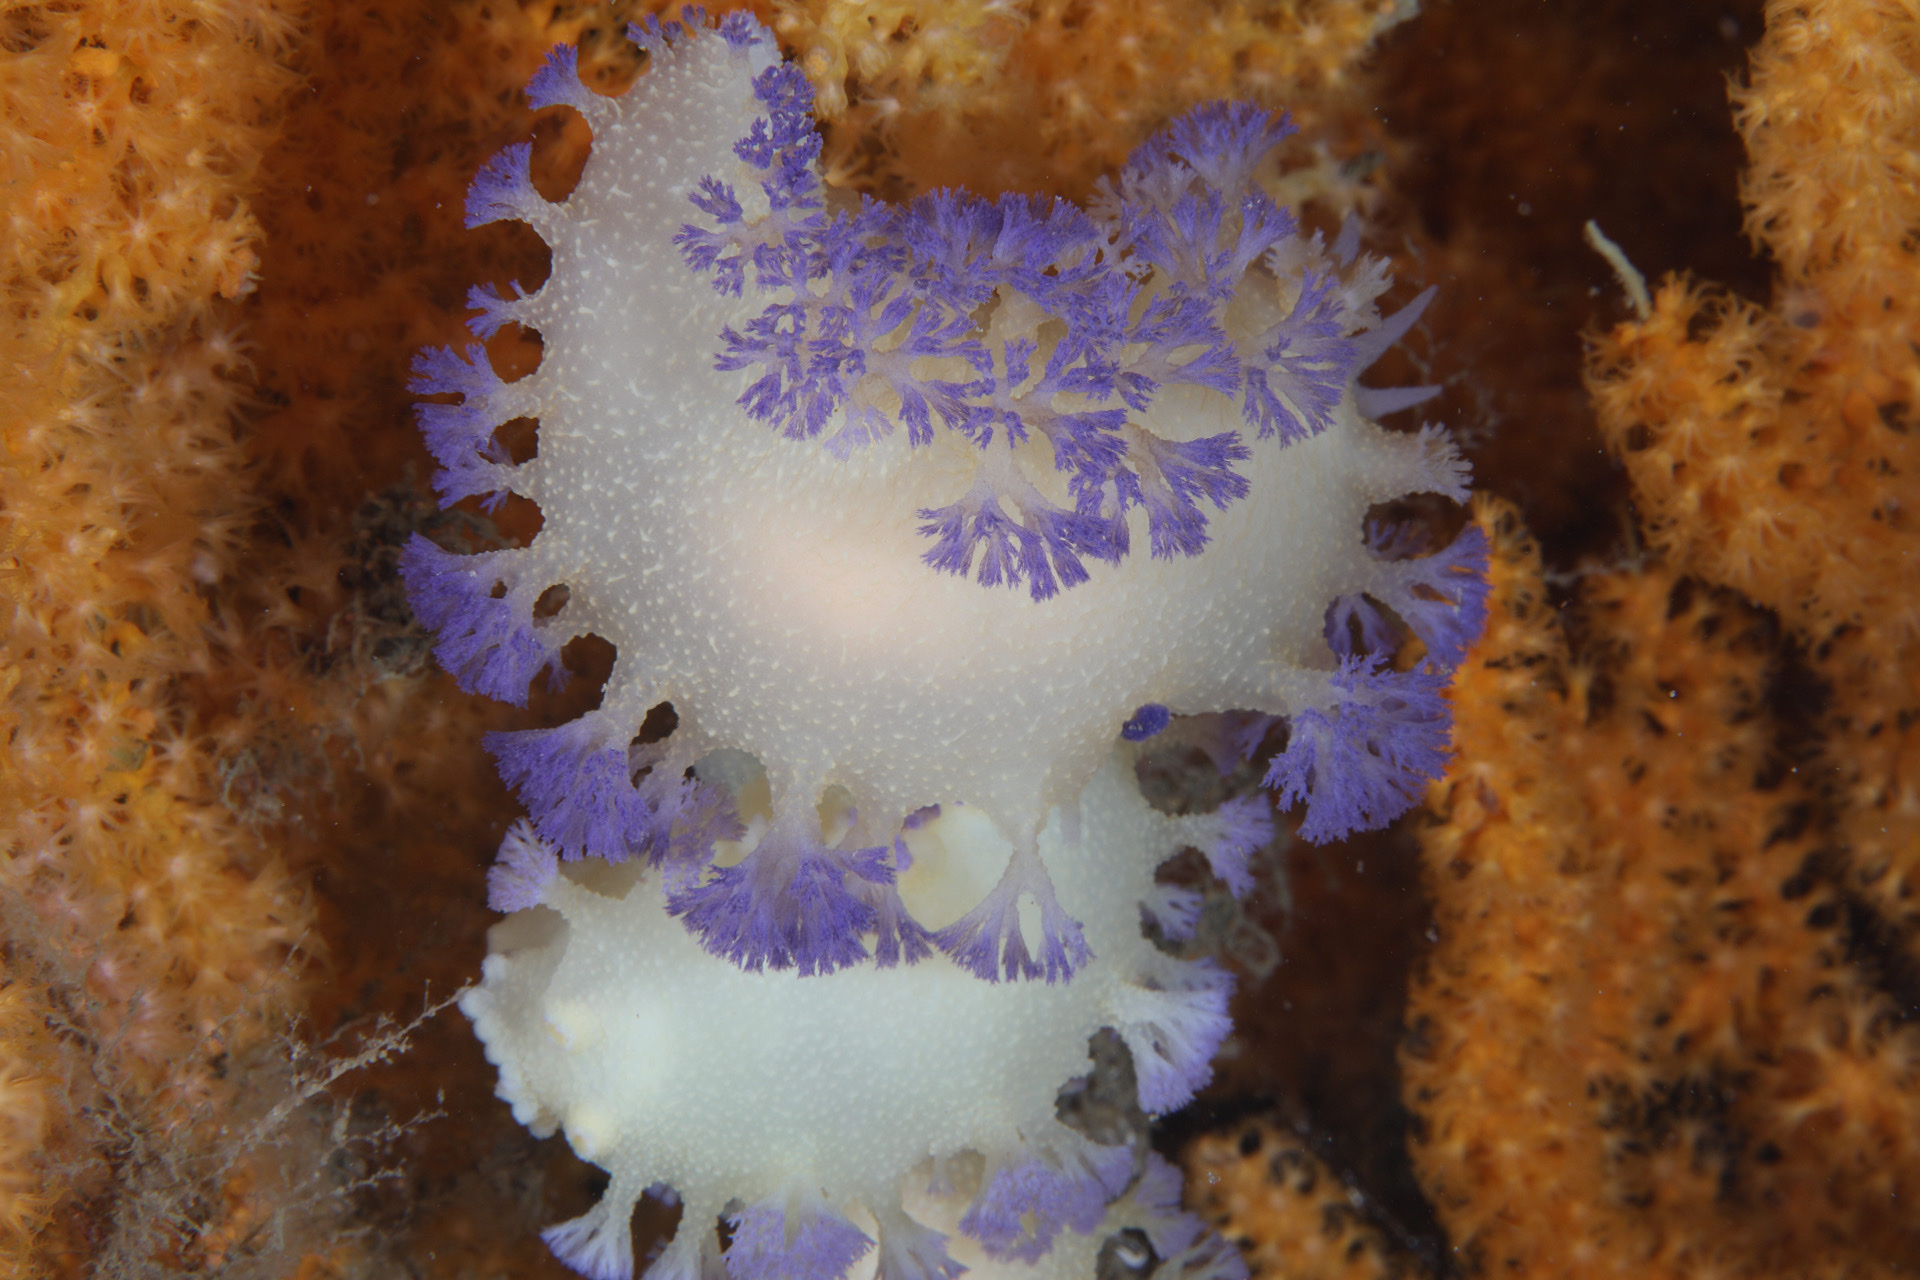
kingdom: Animalia
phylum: Mollusca
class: Gastropoda
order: Nudibranchia
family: Tritoniidae
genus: Tritonia
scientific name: Tritonia griegi
